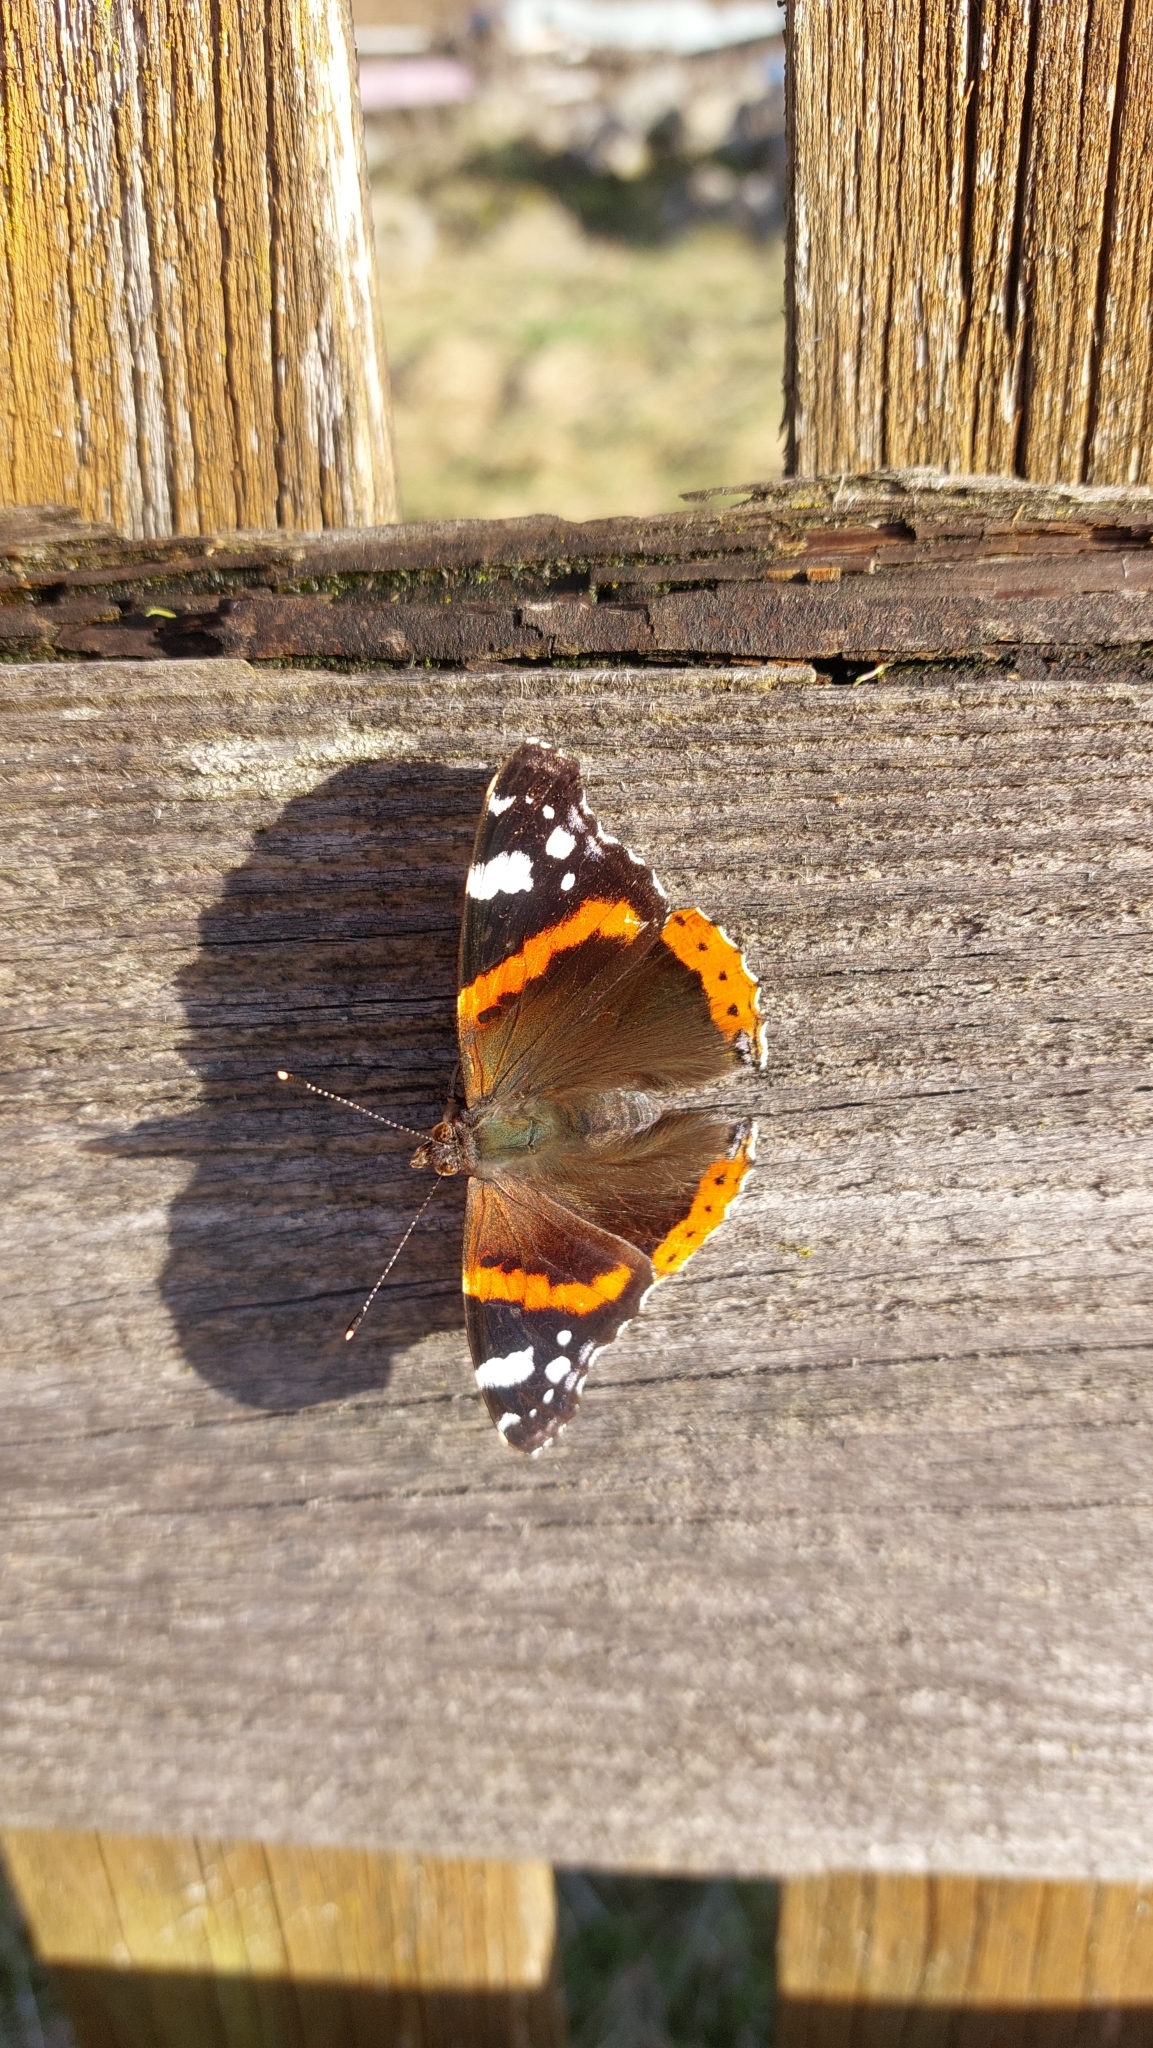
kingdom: Animalia
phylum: Arthropoda
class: Insecta
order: Lepidoptera
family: Nymphalidae
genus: Vanessa
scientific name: Vanessa atalanta
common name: Red admiral
